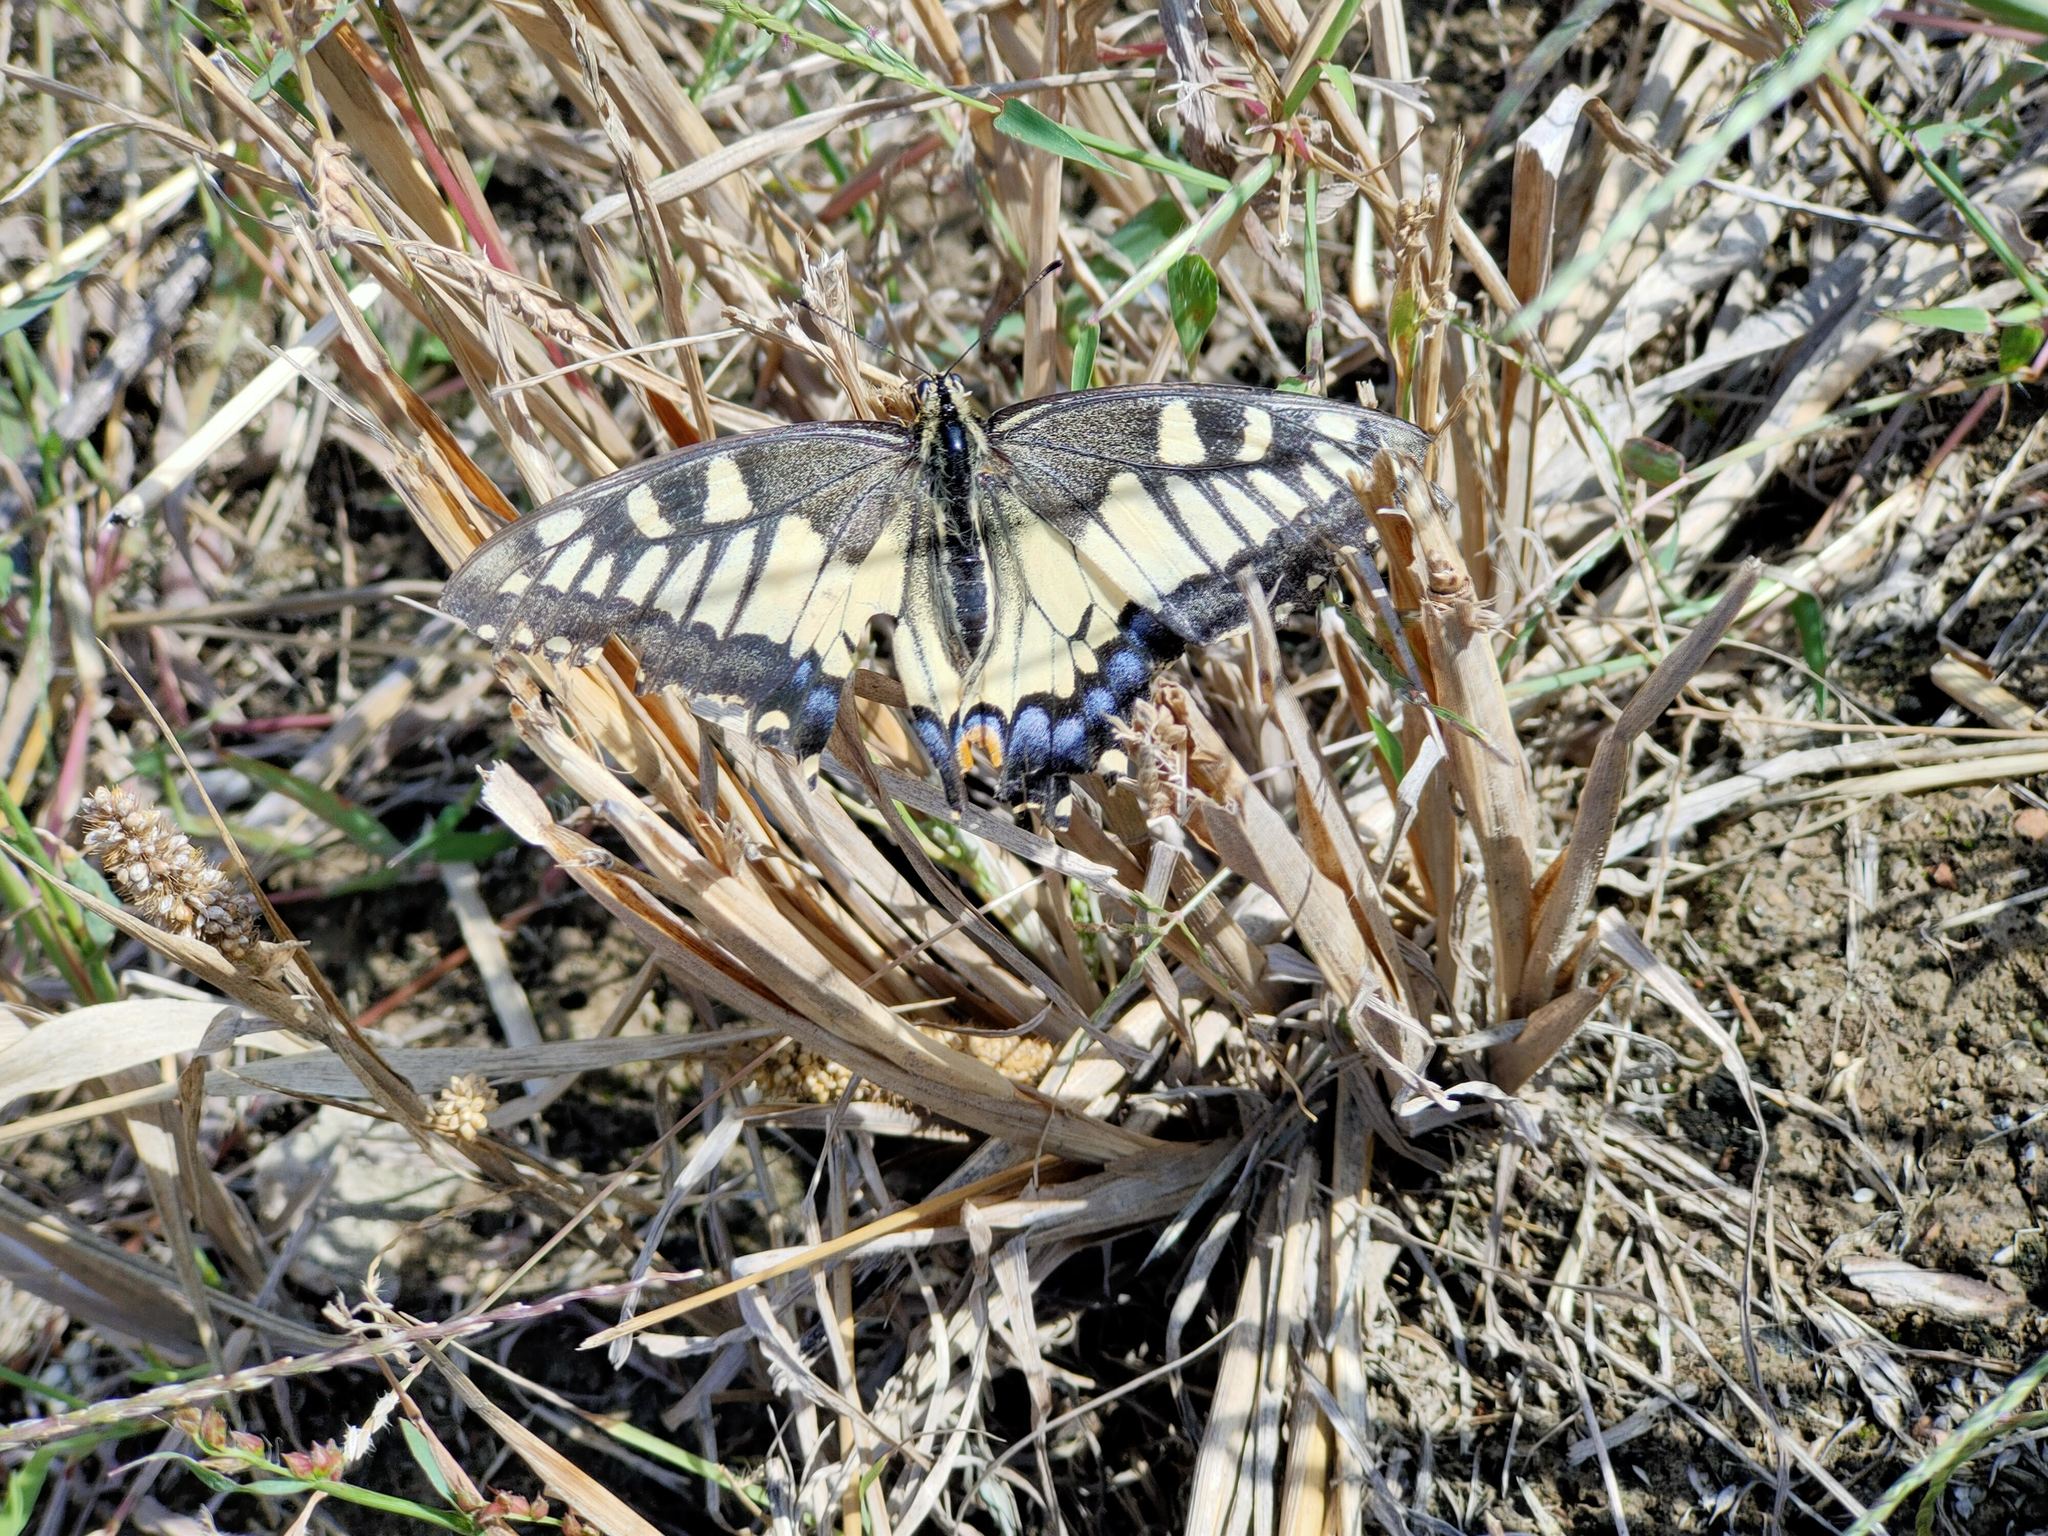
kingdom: Animalia
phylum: Arthropoda
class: Insecta
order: Lepidoptera
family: Papilionidae
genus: Papilio
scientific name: Papilio machaon
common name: Swallowtail
